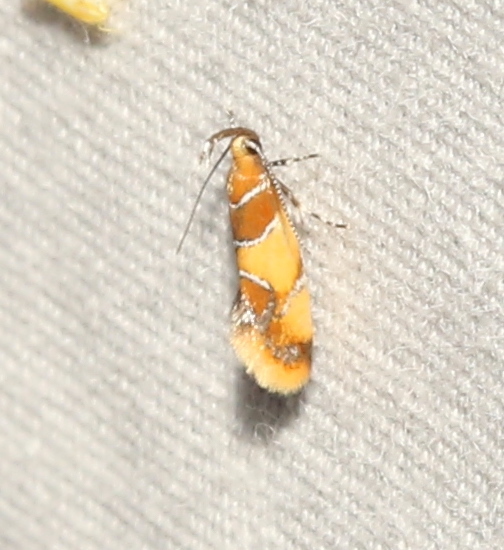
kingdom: Animalia
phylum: Arthropoda
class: Insecta
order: Lepidoptera
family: Oecophoridae
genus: Callima
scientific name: Callima argenticinctella
